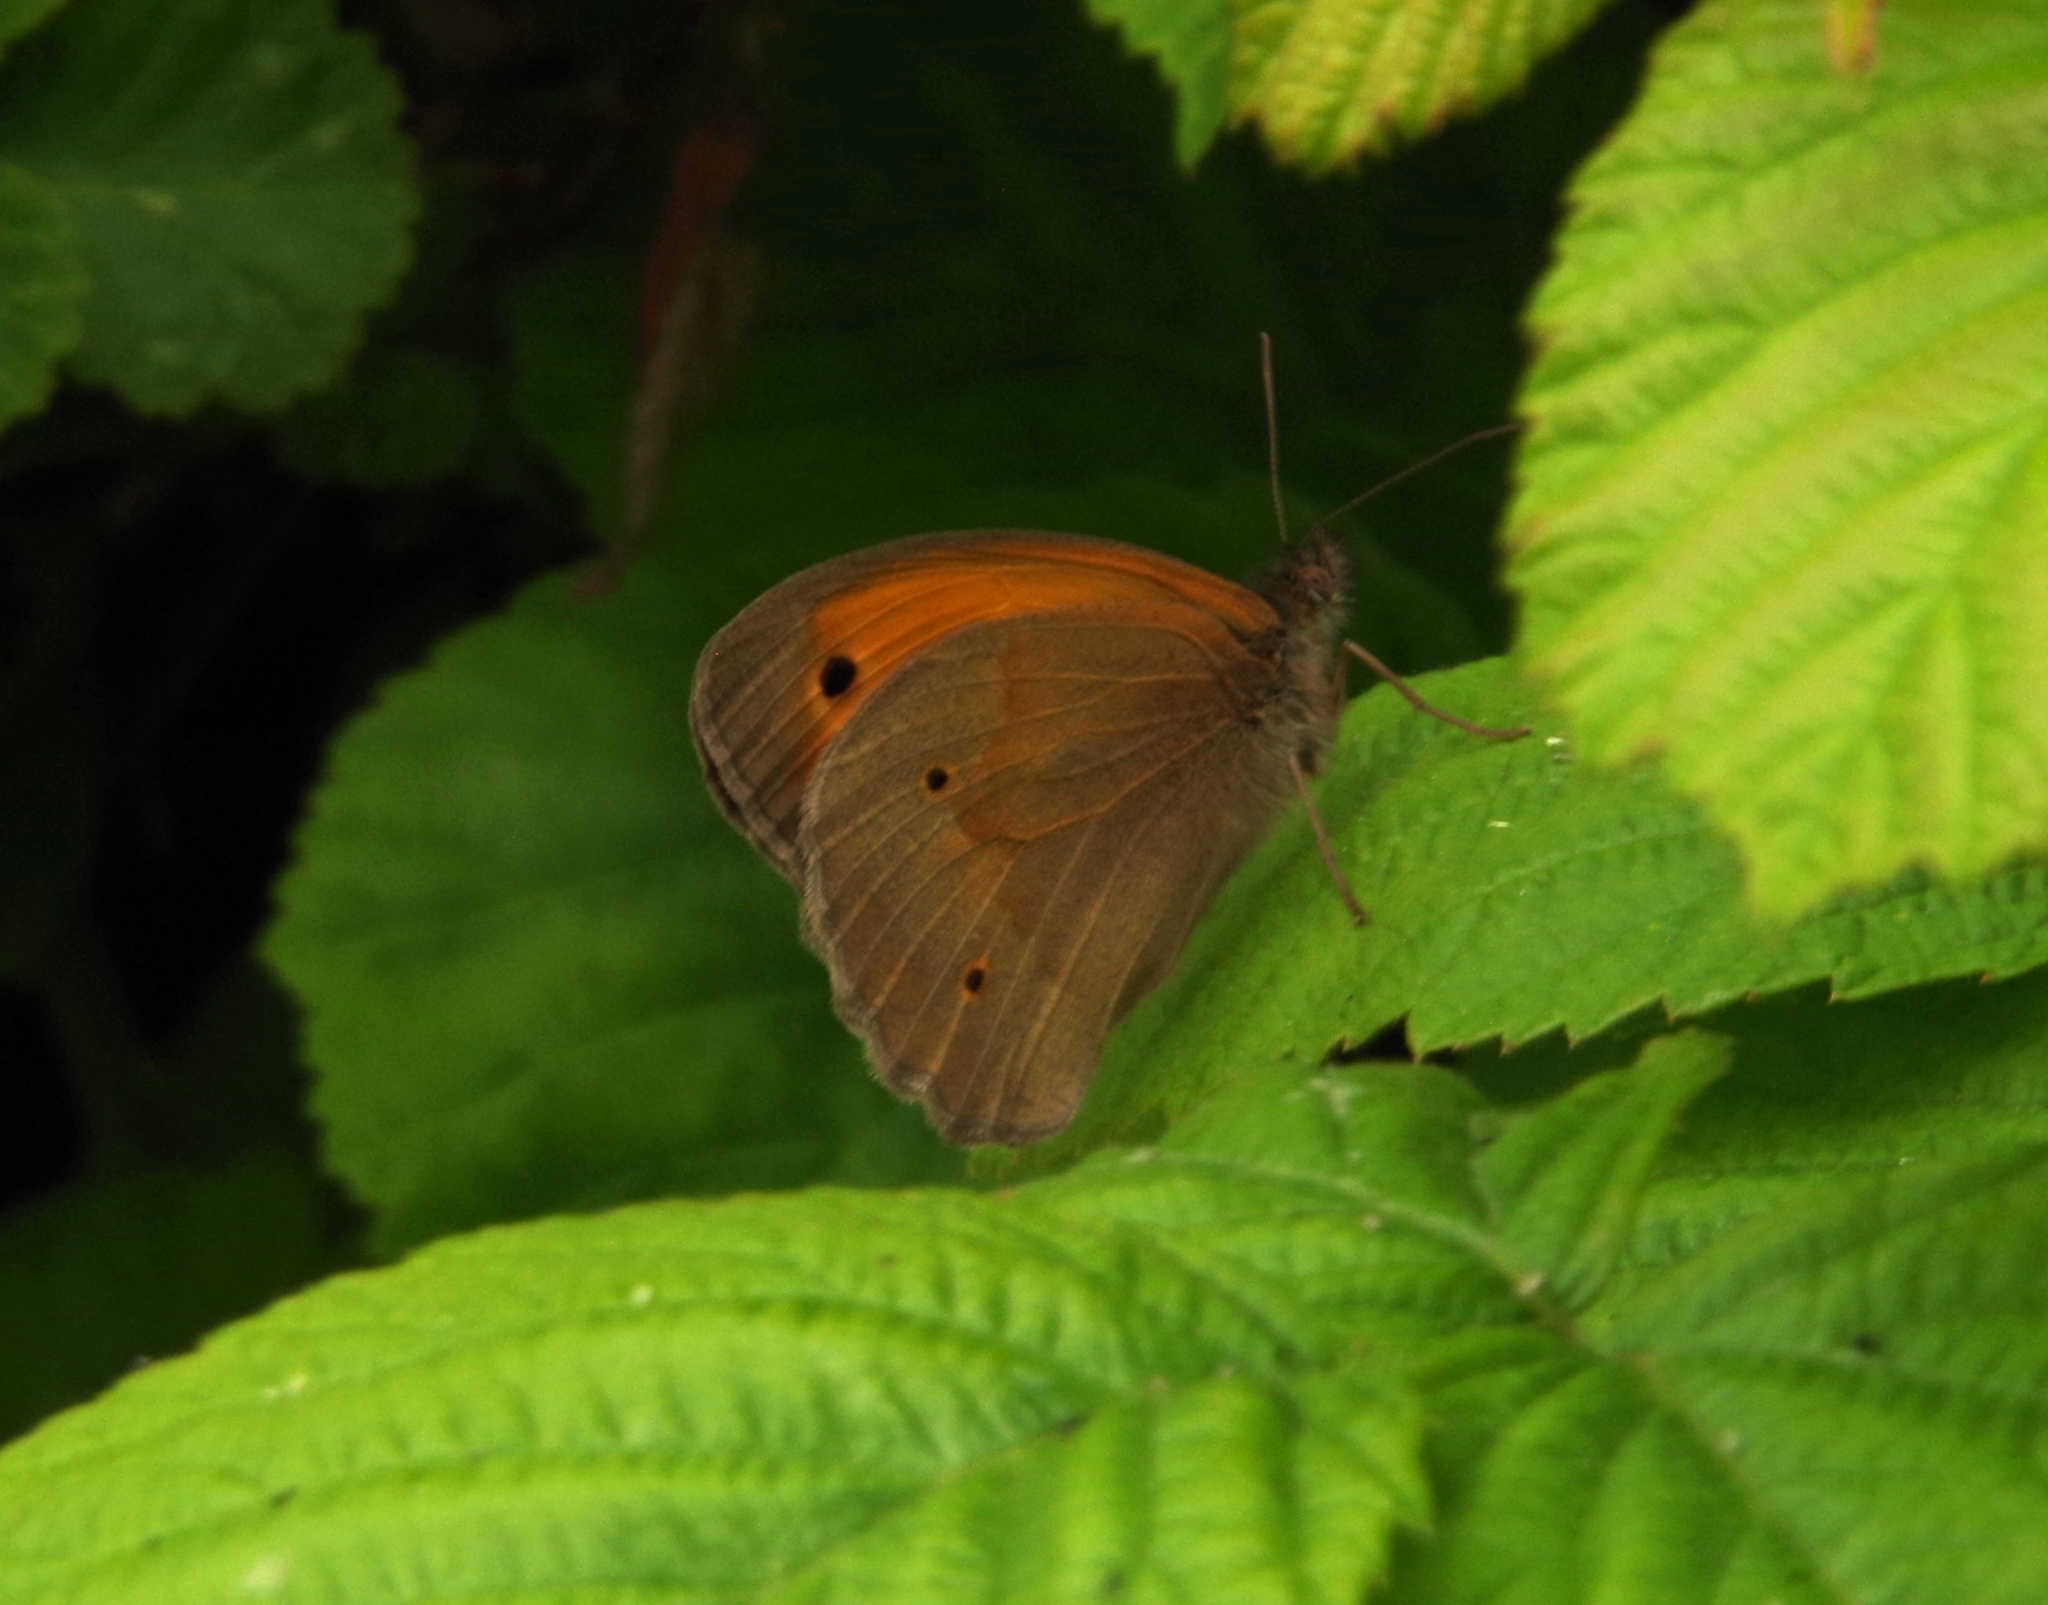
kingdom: Animalia
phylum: Arthropoda
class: Insecta
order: Lepidoptera
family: Nymphalidae
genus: Maniola
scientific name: Maniola jurtina
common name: Meadow brown
